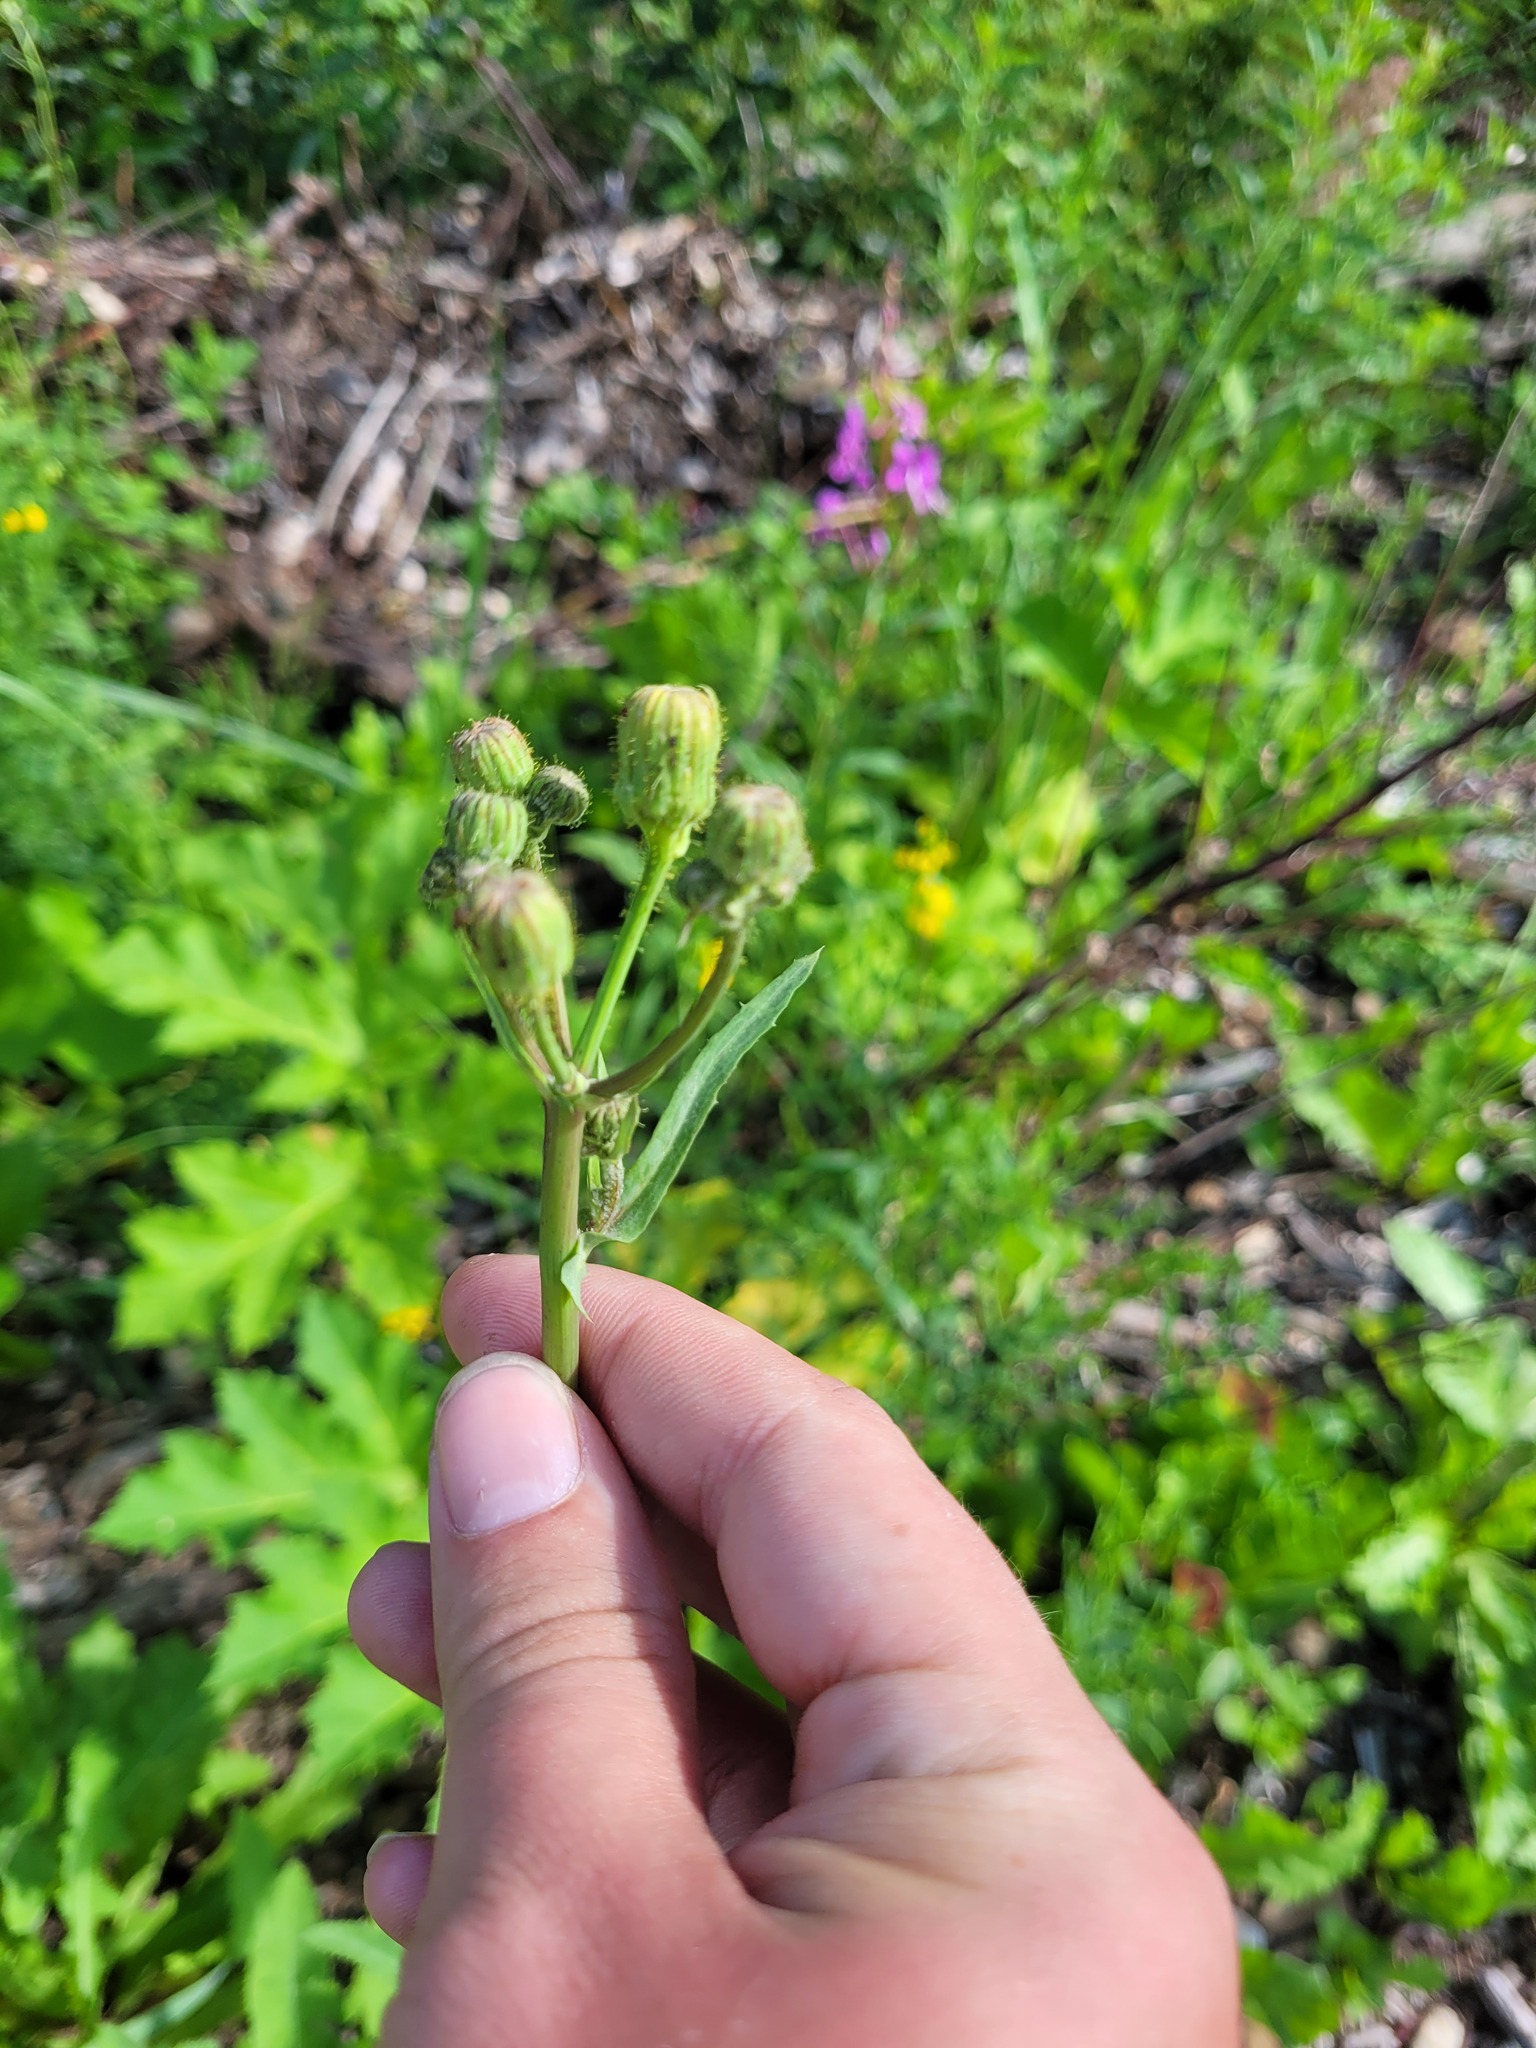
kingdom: Plantae
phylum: Tracheophyta
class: Magnoliopsida
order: Asterales
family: Asteraceae
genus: Sonchus
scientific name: Sonchus arvensis
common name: Perennial sow-thistle
